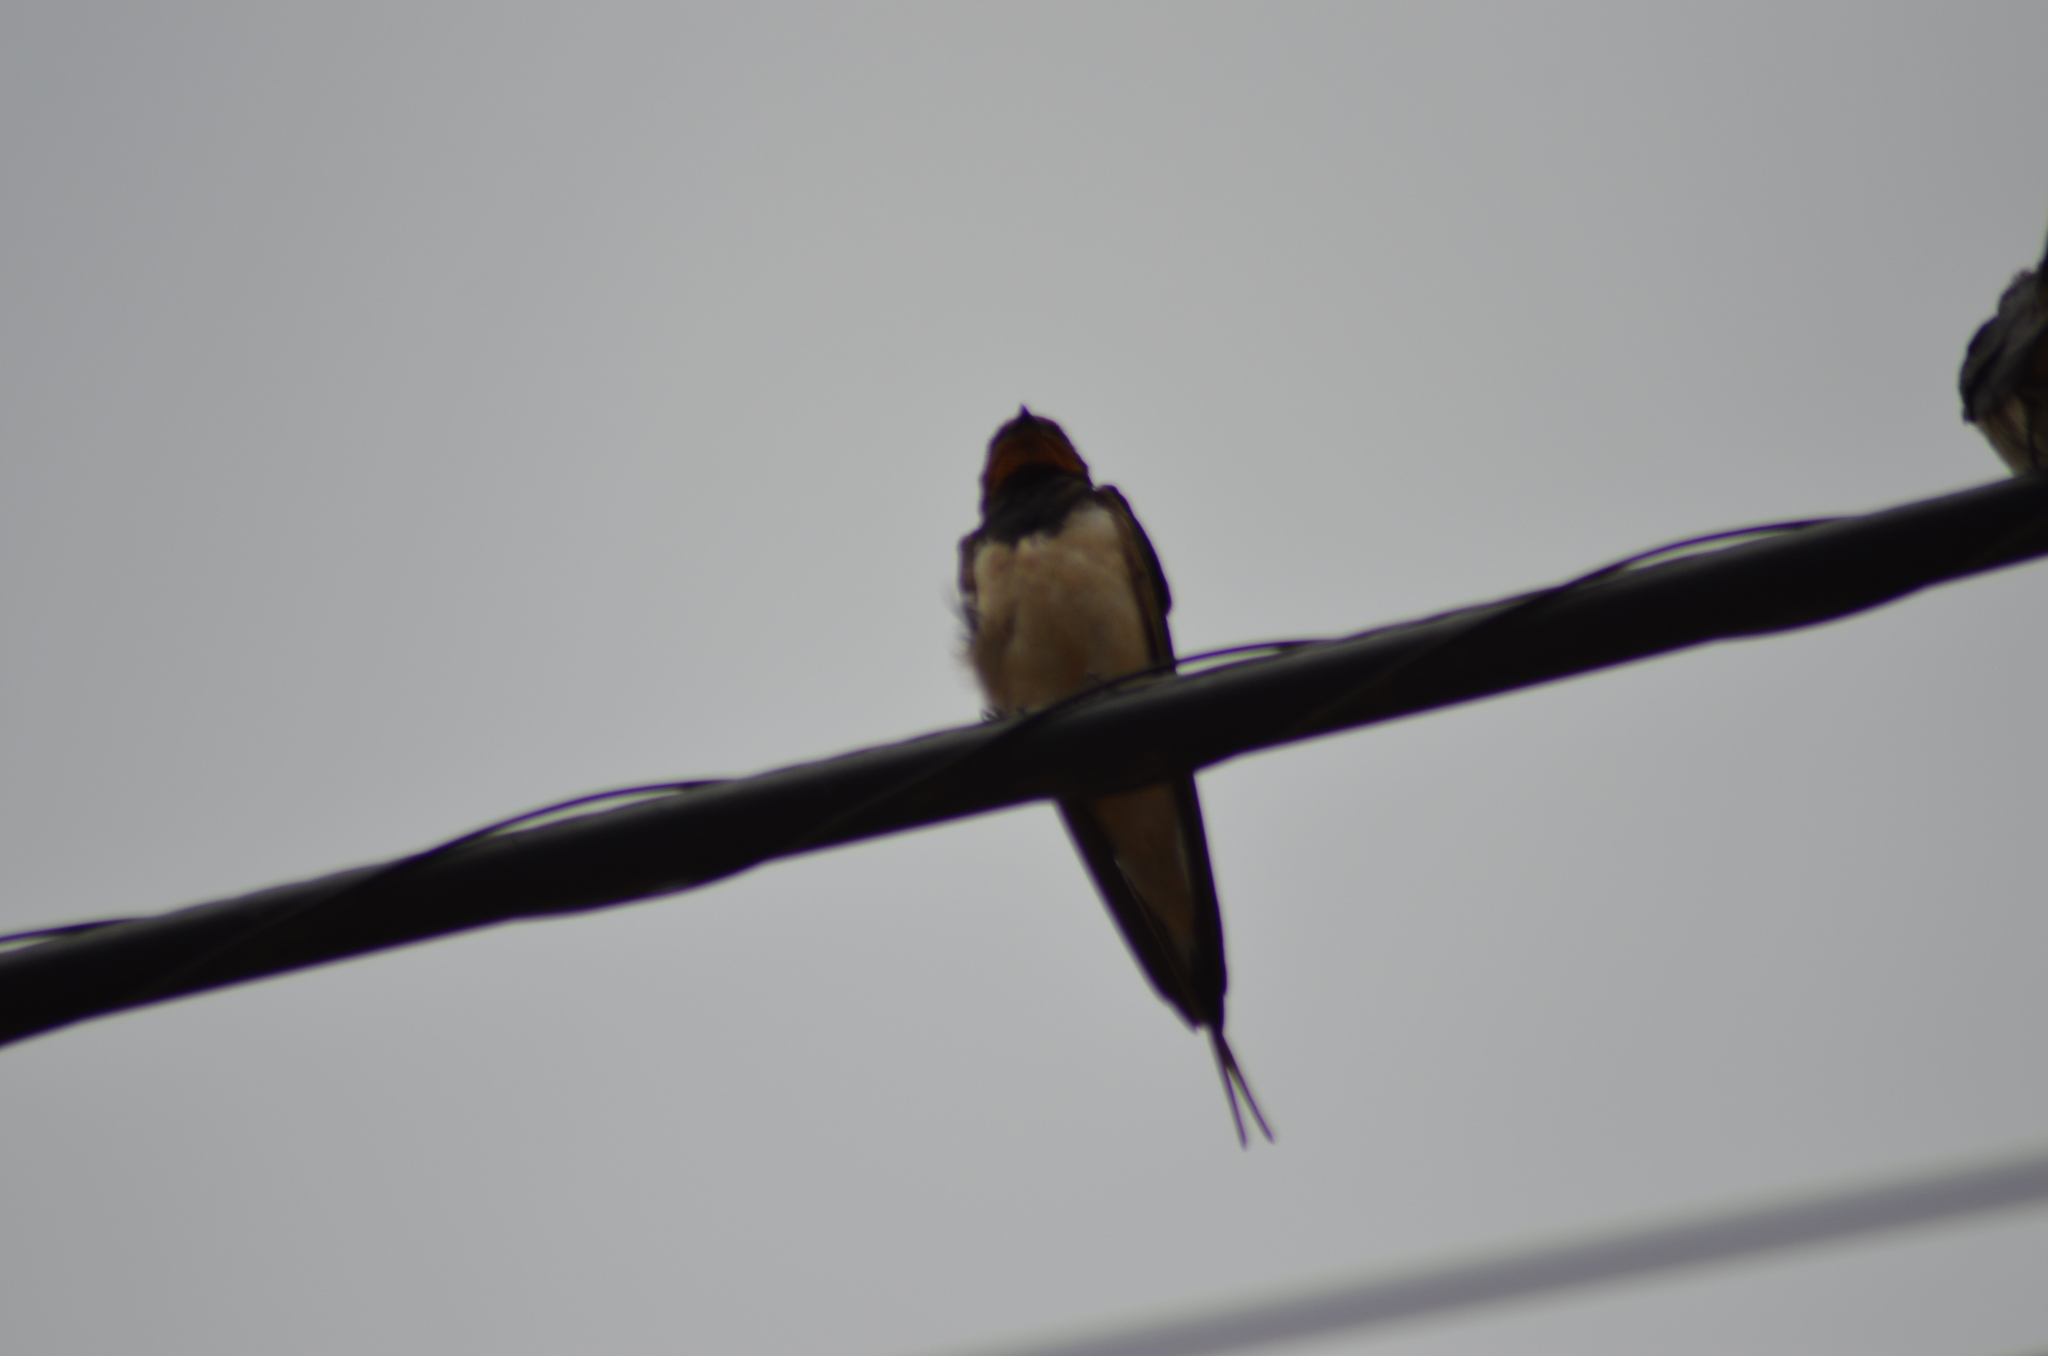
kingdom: Animalia
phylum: Chordata
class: Aves
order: Passeriformes
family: Hirundinidae
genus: Hirundo
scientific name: Hirundo rustica
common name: Barn swallow
